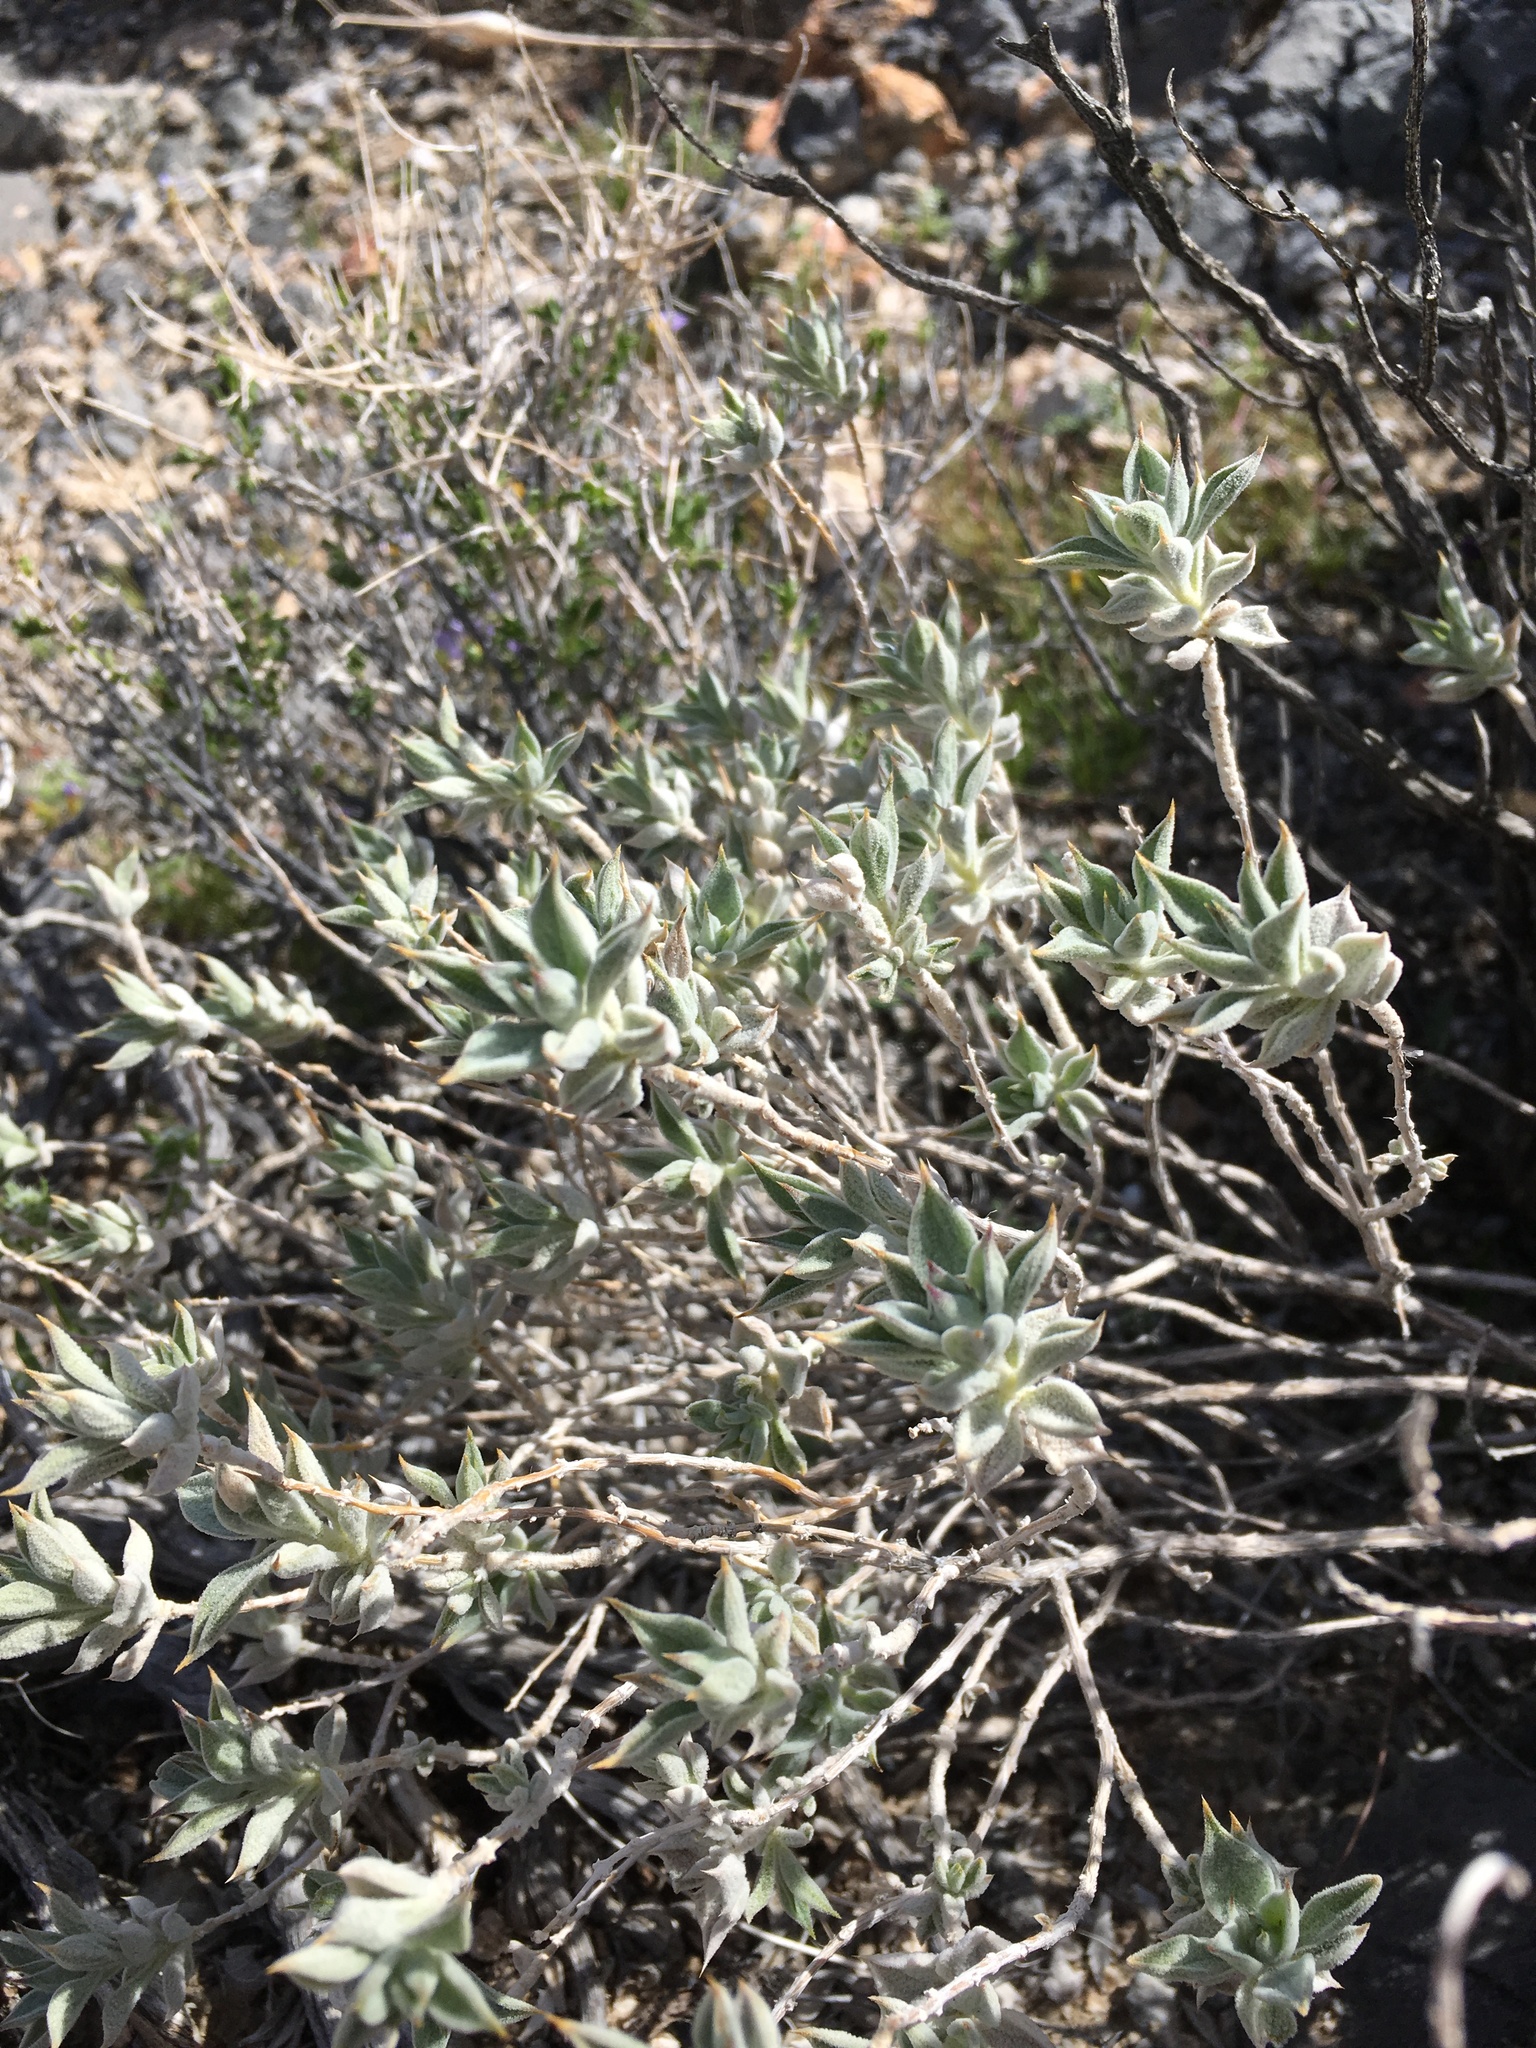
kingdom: Plantae
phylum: Tracheophyta
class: Magnoliopsida
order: Lamiales
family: Lamiaceae
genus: Salvia
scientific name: Salvia funerea
